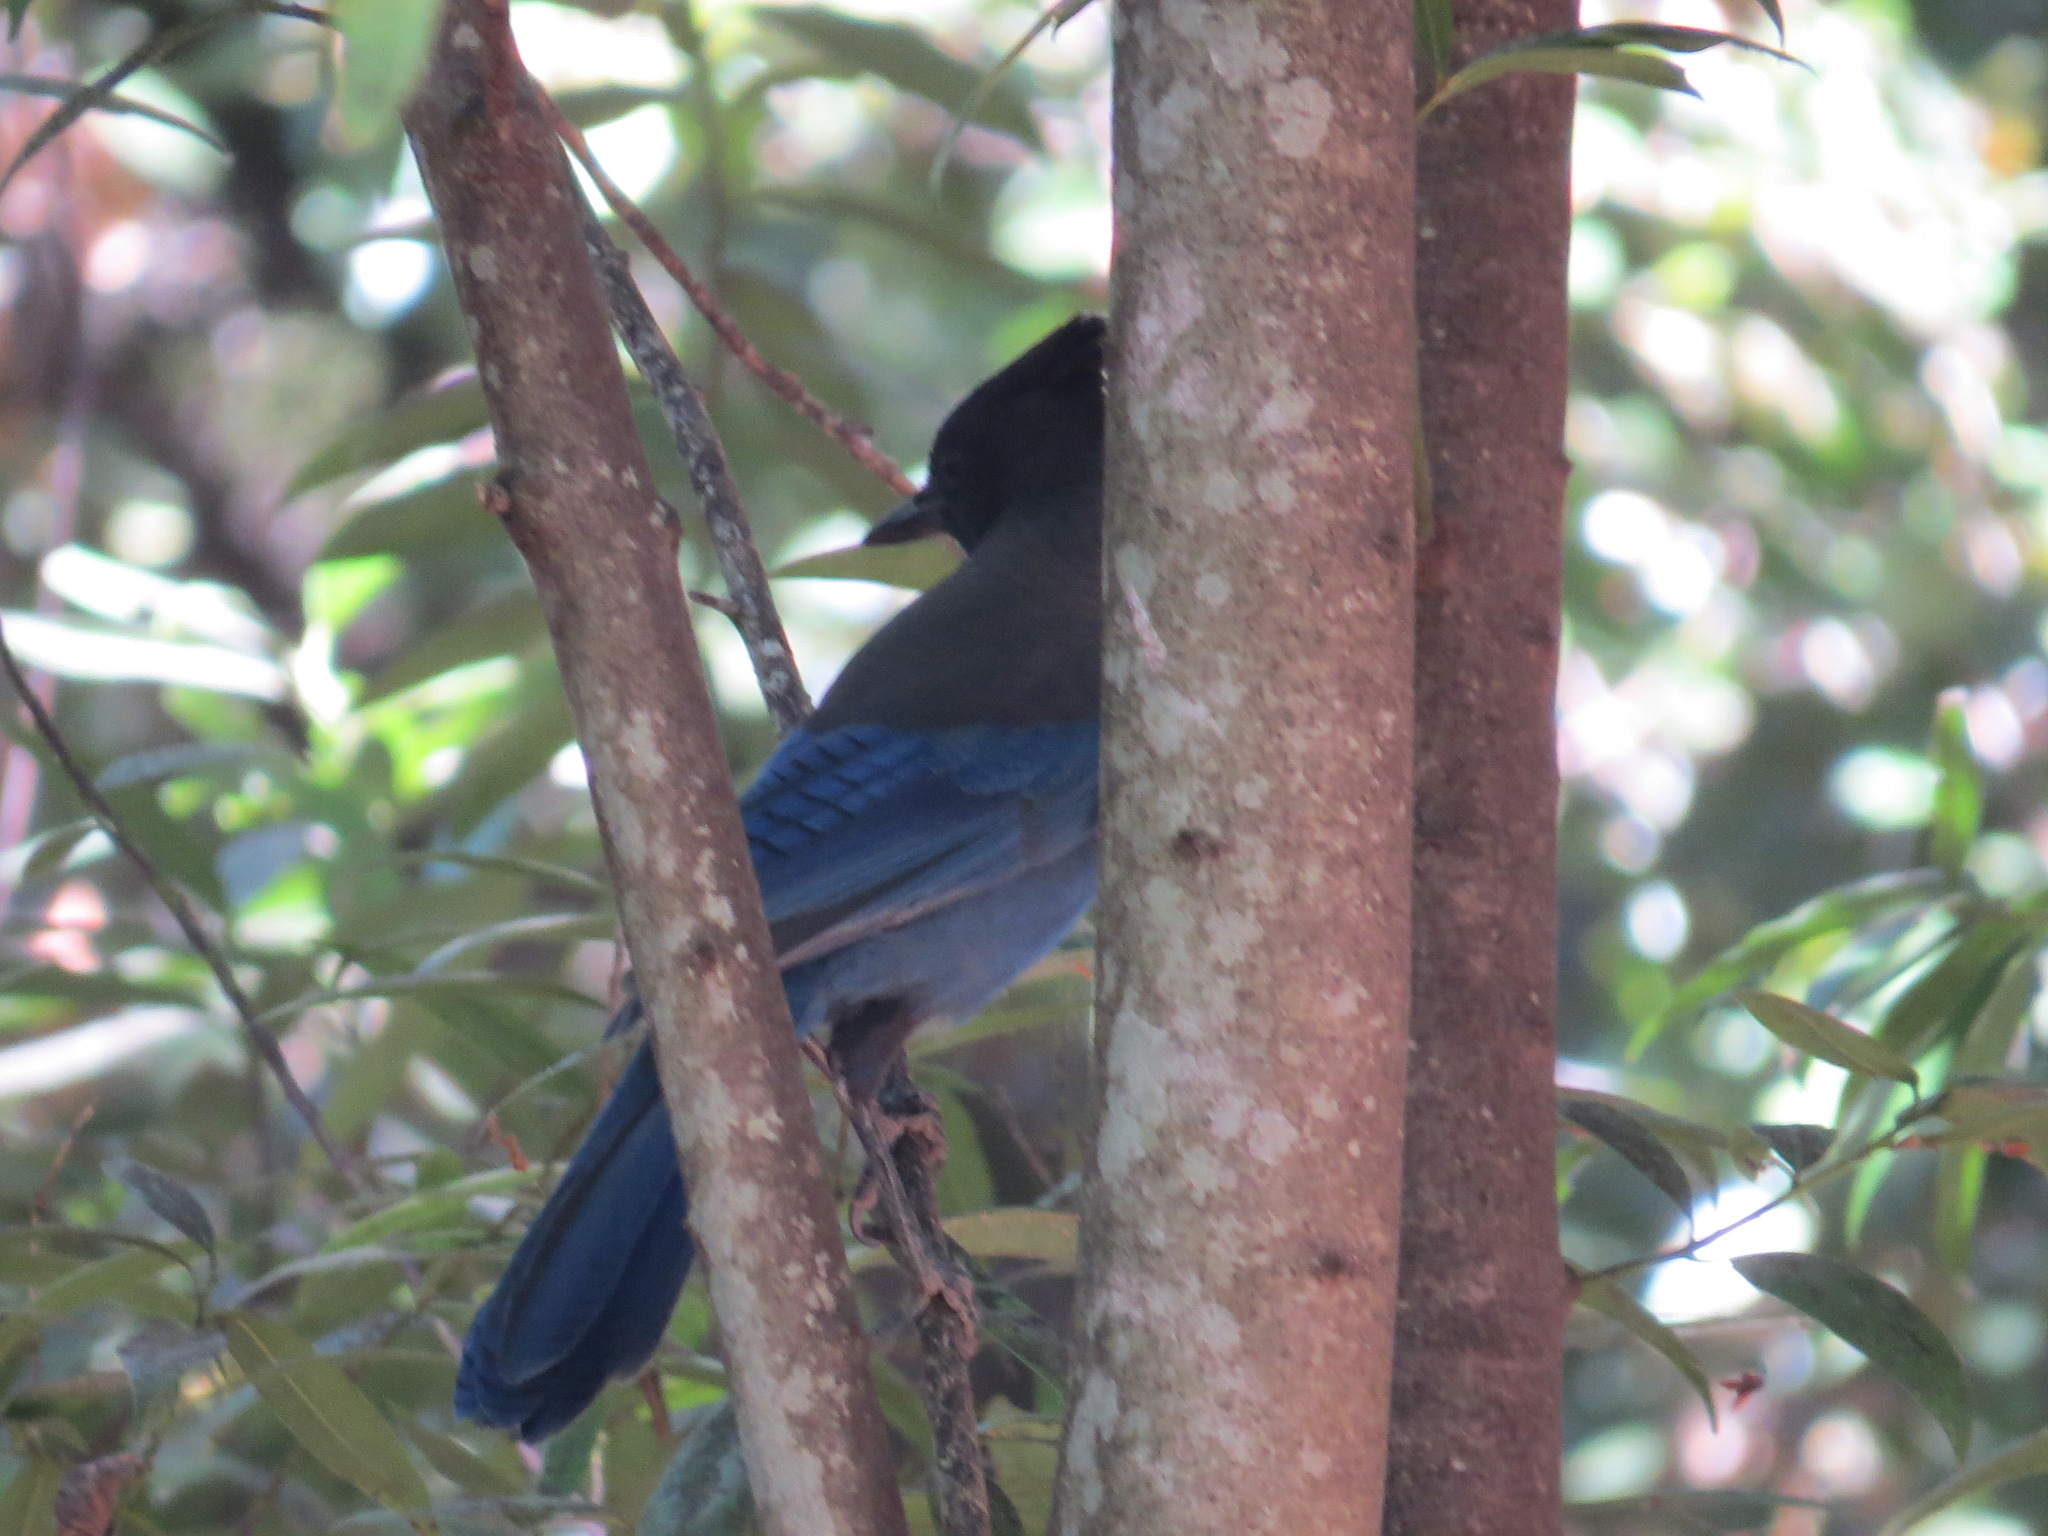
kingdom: Animalia
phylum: Chordata
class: Aves
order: Passeriformes
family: Corvidae
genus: Cyanocitta
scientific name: Cyanocitta stelleri
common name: Steller's jay
